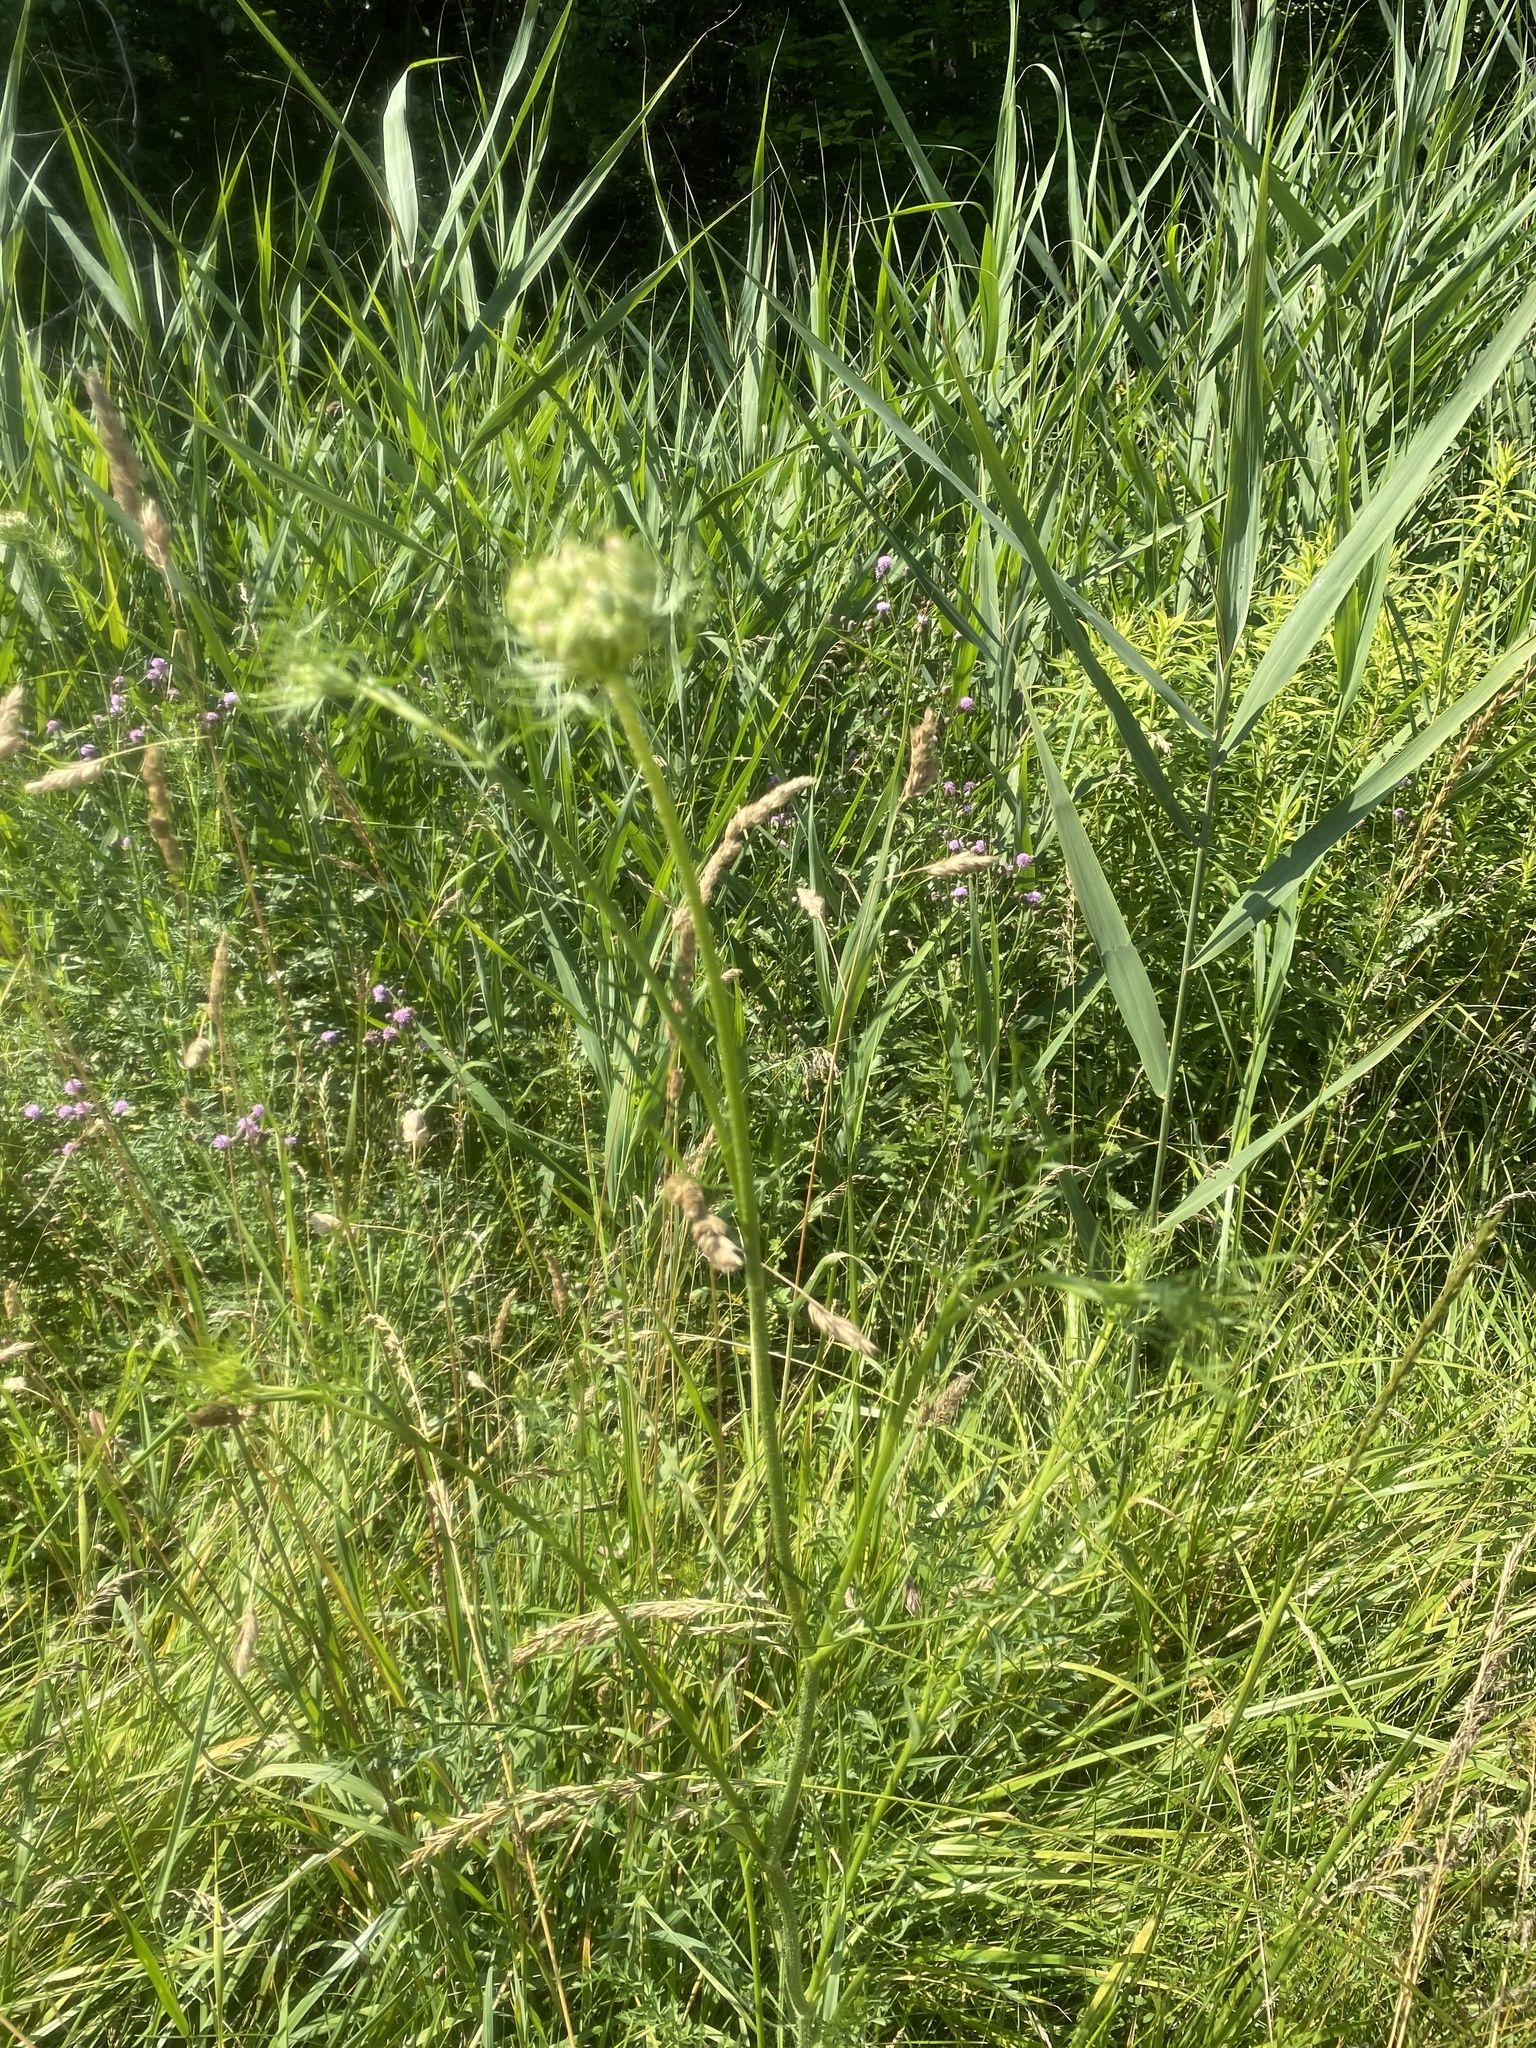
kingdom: Plantae
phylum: Tracheophyta
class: Magnoliopsida
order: Apiales
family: Apiaceae
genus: Daucus
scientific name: Daucus carota
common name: Wild carrot
